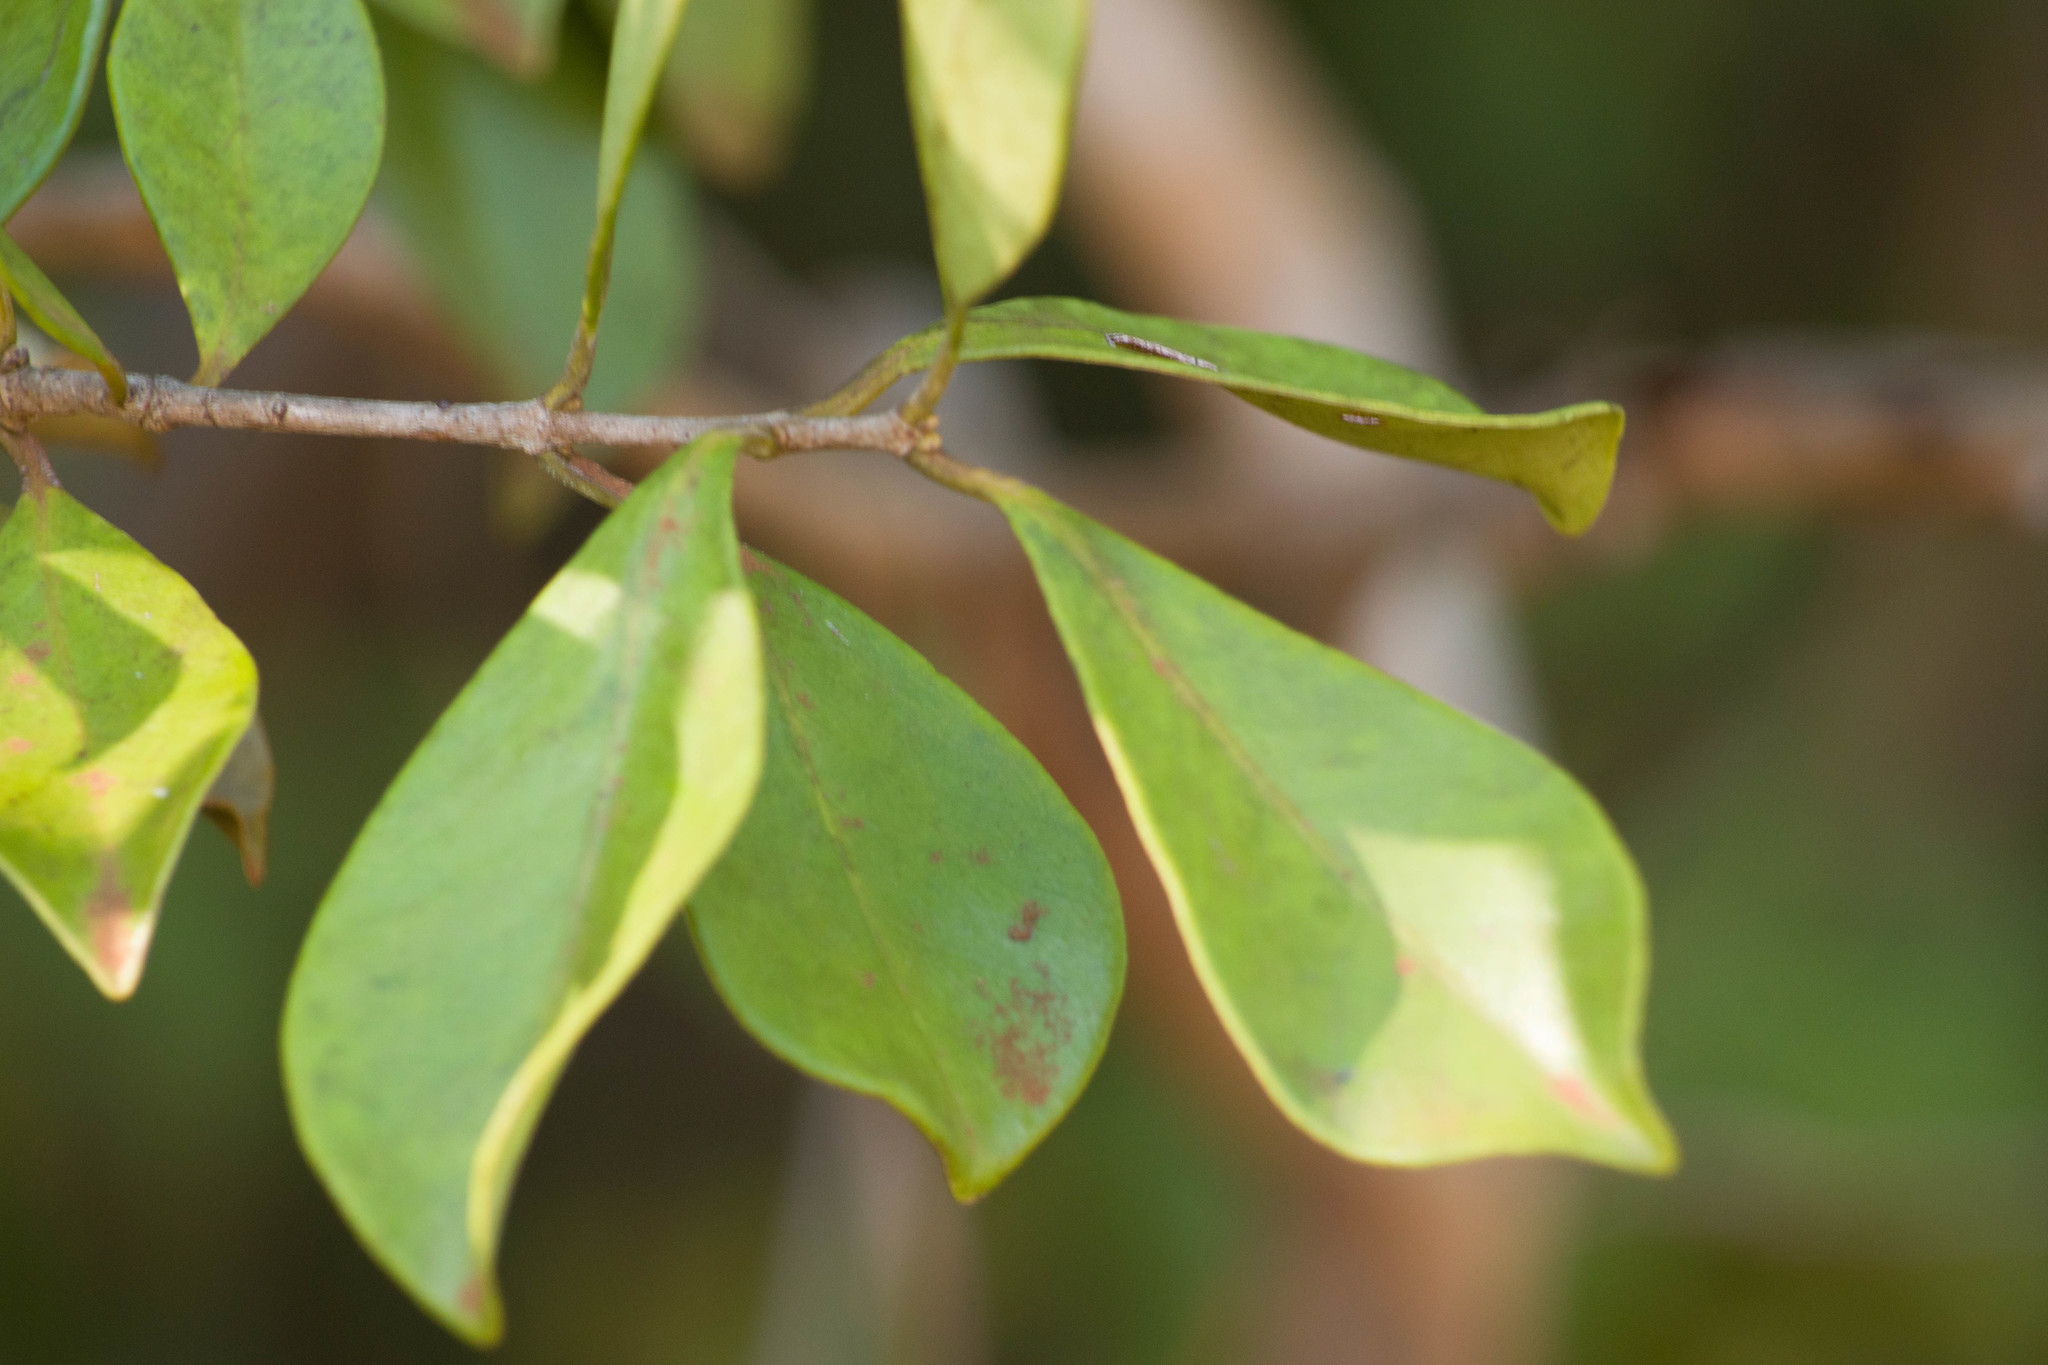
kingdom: Plantae
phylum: Tracheophyta
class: Magnoliopsida
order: Myrtales
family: Myrtaceae
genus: Psidium
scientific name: Psidium cattleianum
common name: Strawberry guava
